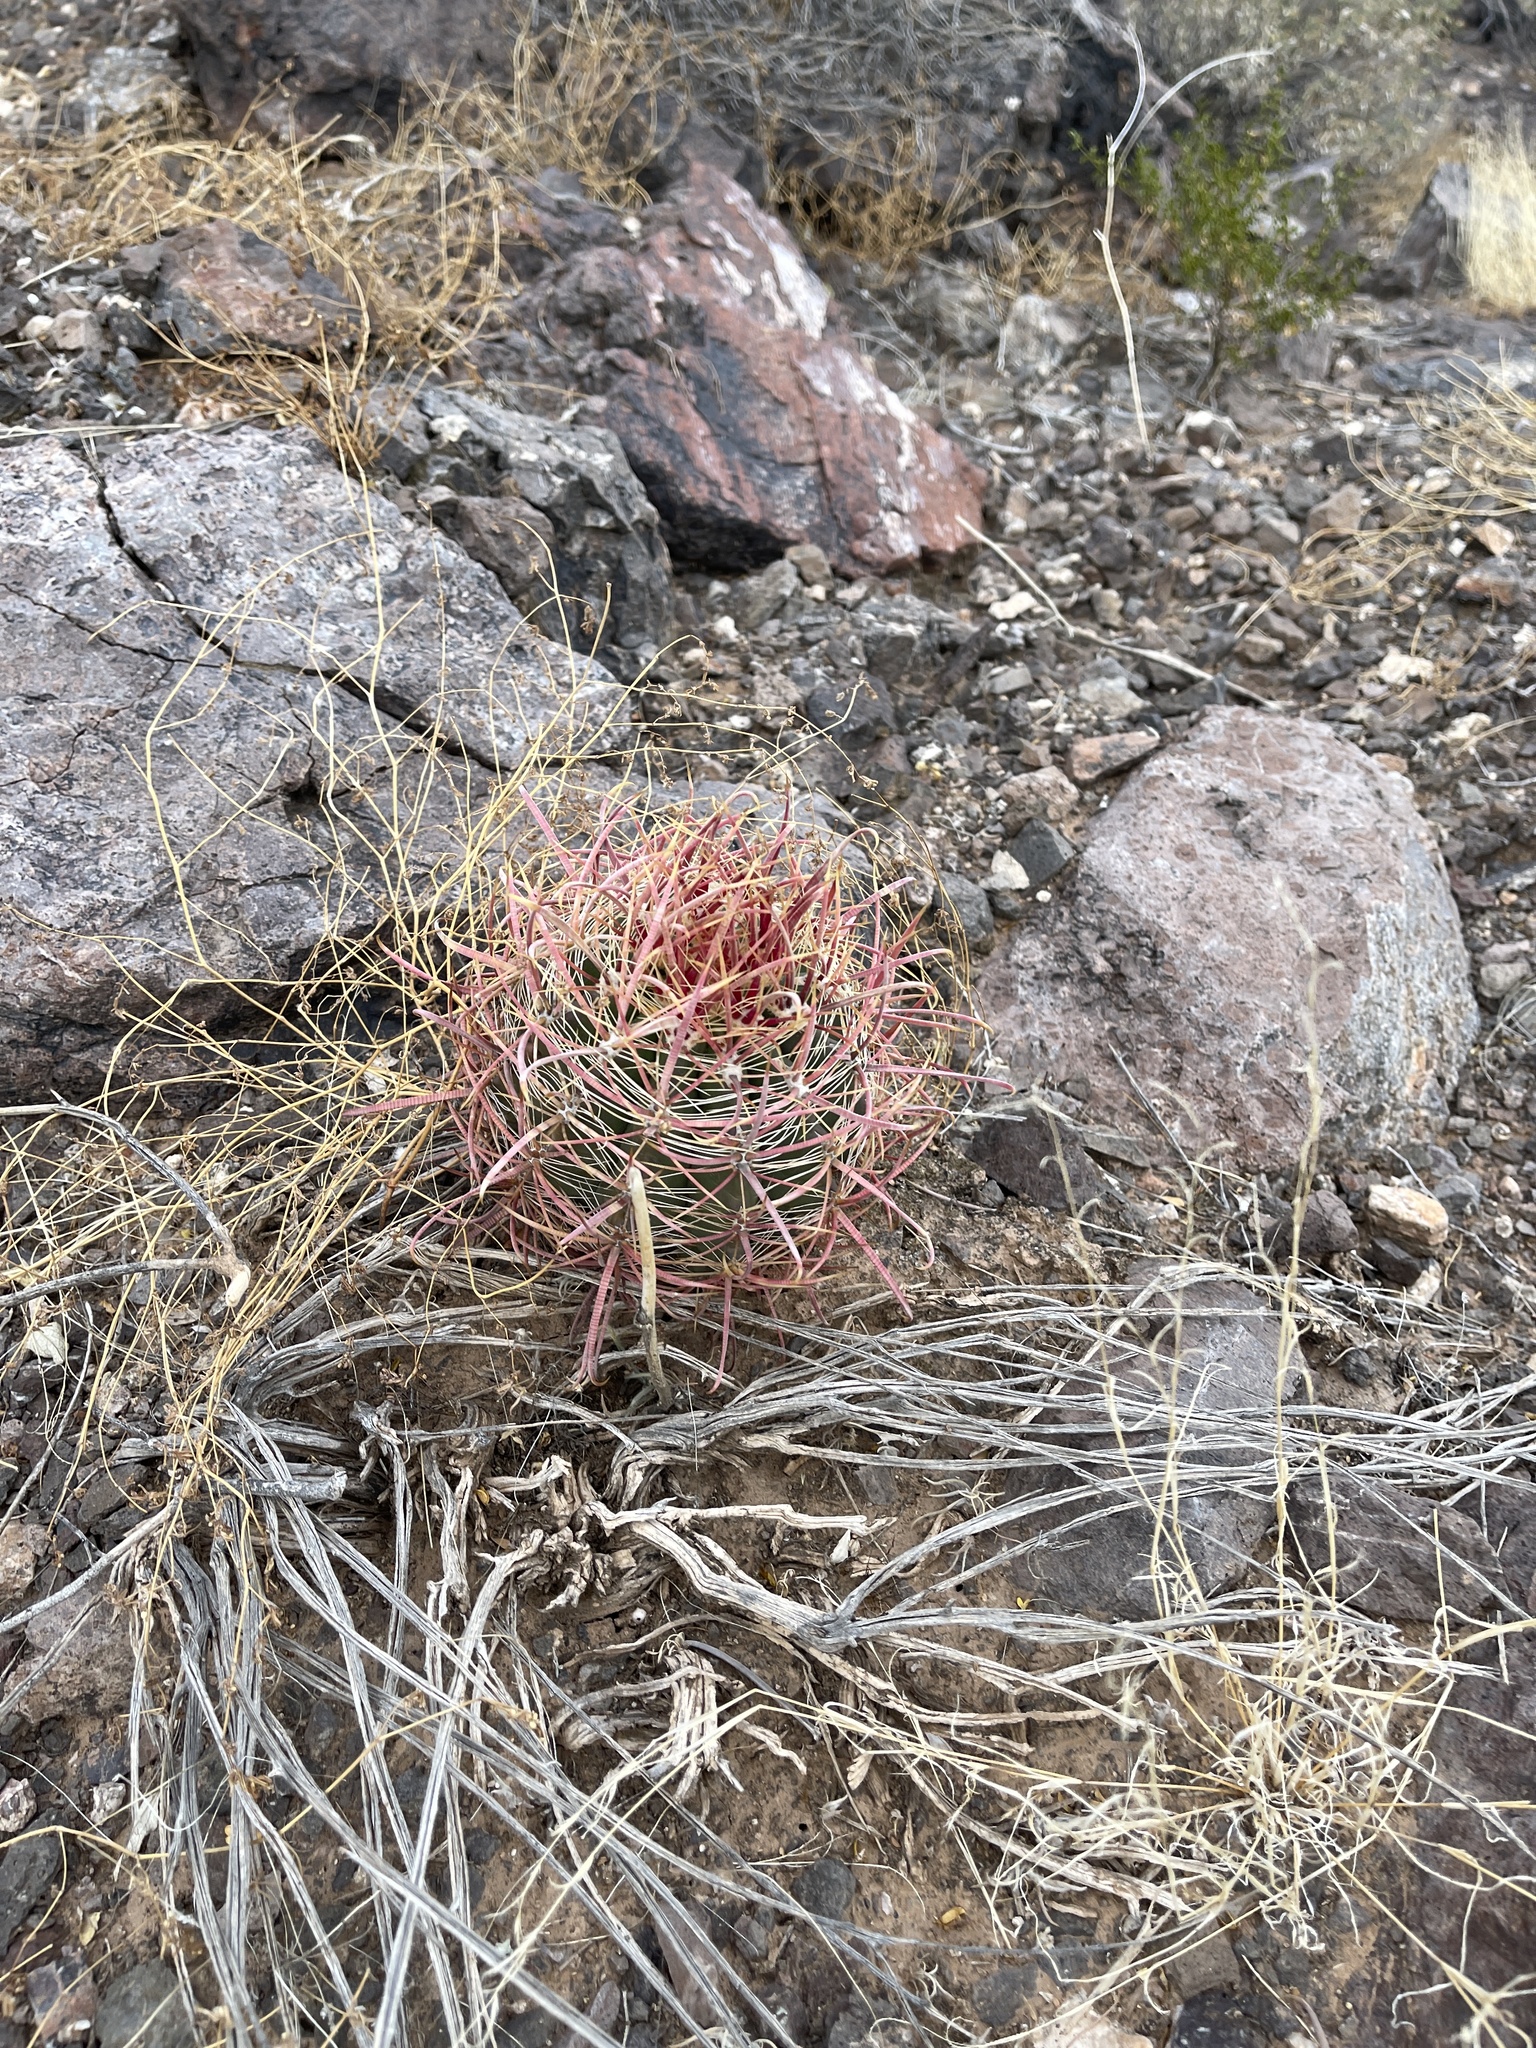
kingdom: Plantae
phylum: Tracheophyta
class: Magnoliopsida
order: Caryophyllales
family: Cactaceae
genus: Ferocactus
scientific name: Ferocactus cylindraceus
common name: California barrel cactus
